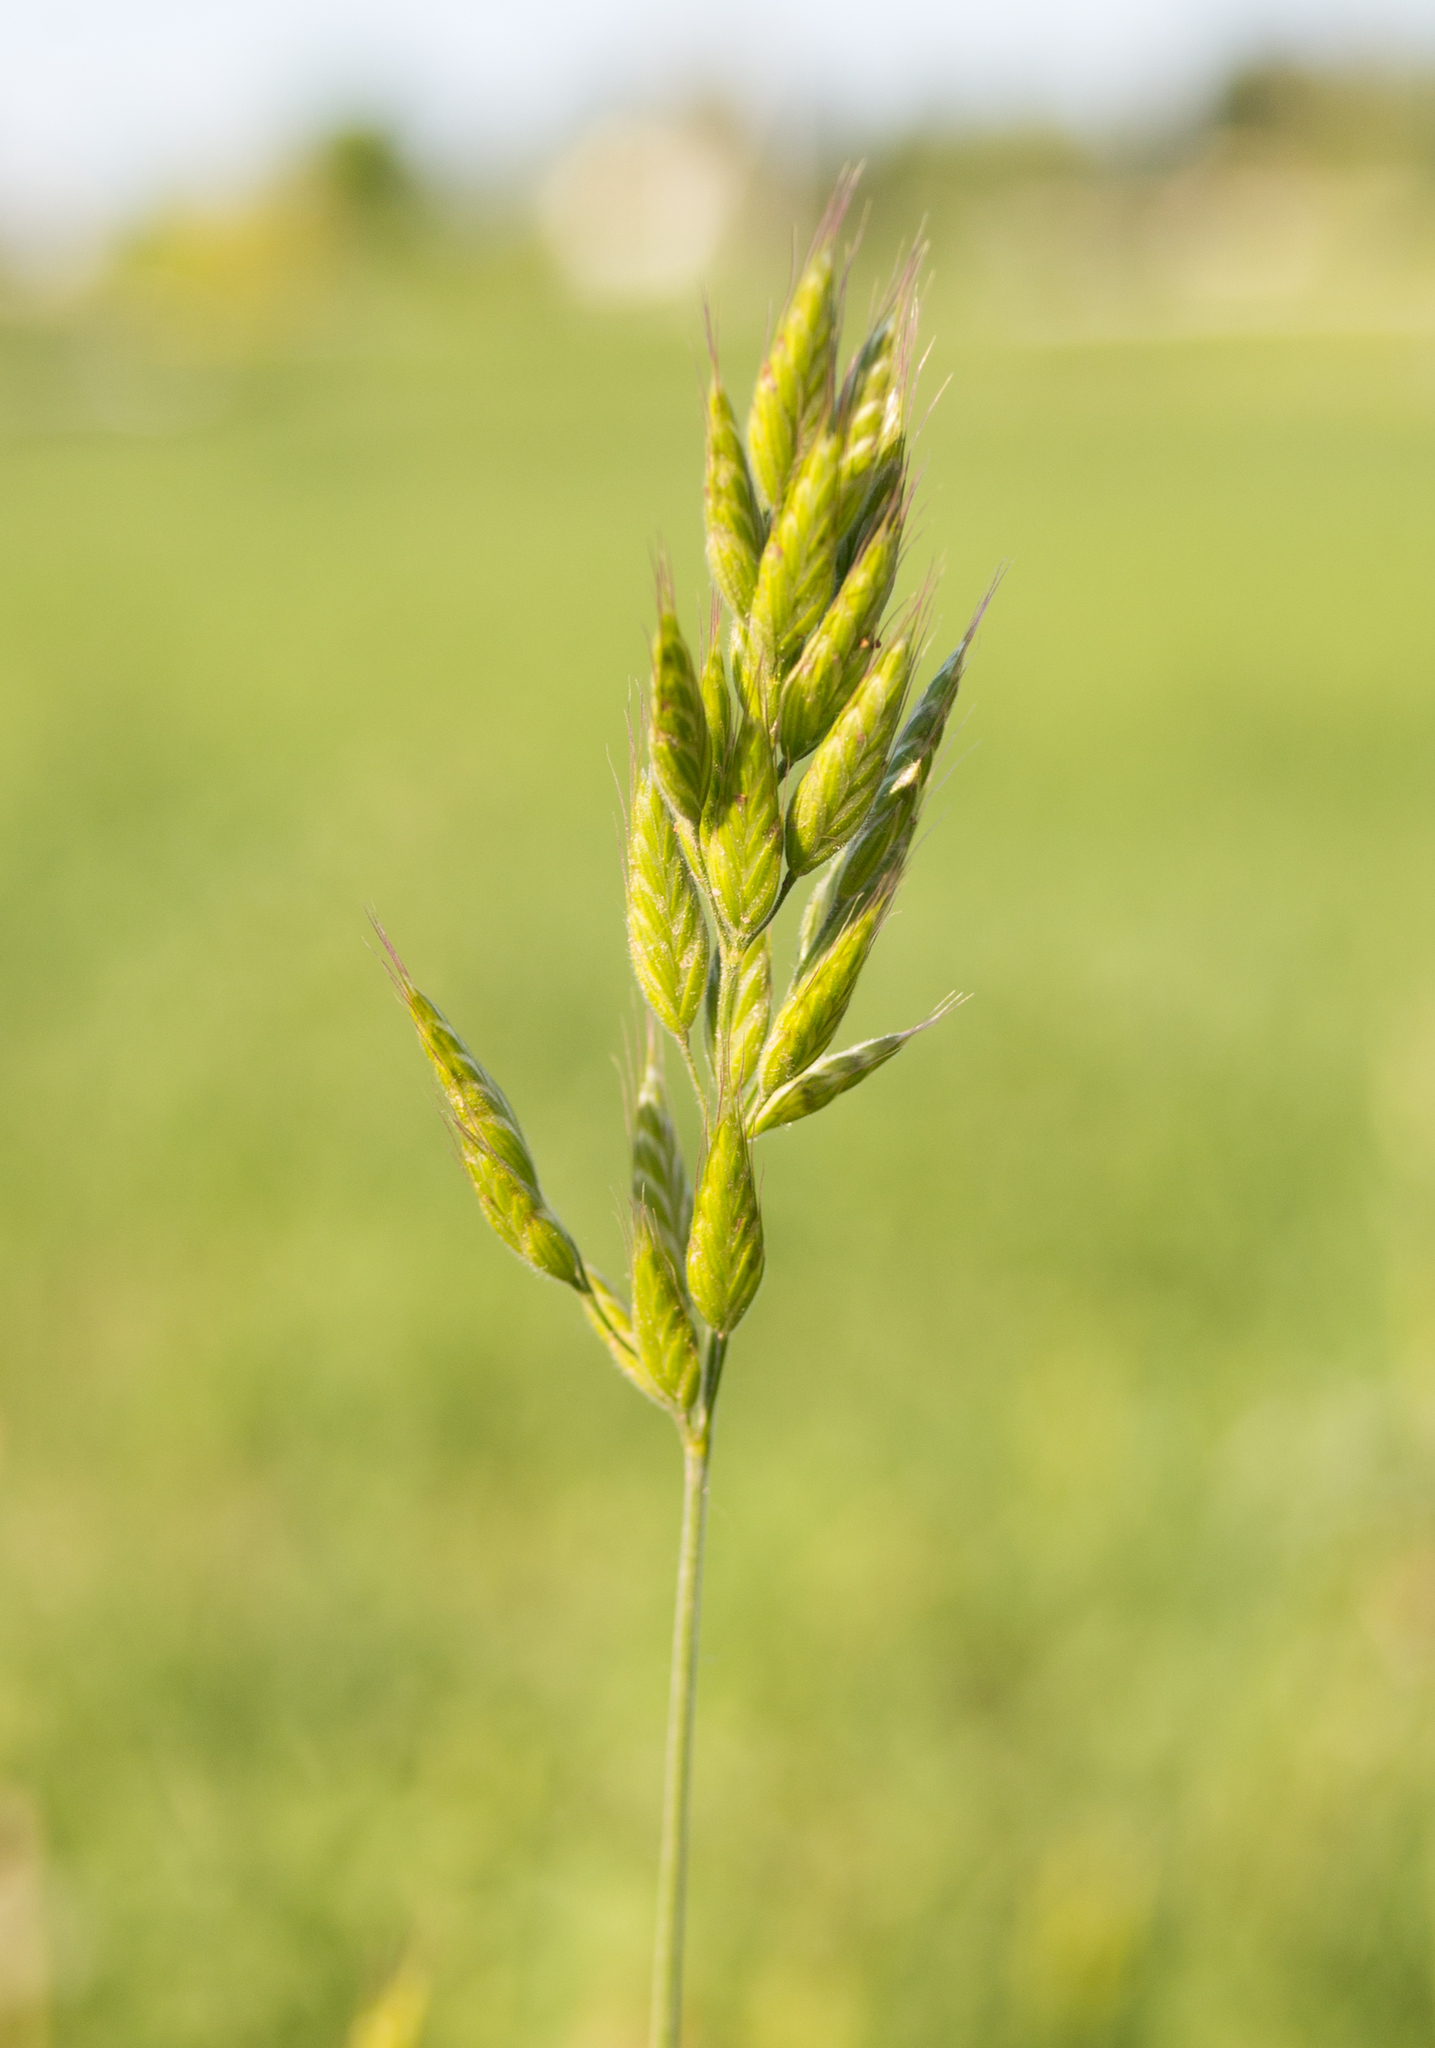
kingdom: Plantae
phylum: Tracheophyta
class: Liliopsida
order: Poales
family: Poaceae
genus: Bromus
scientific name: Bromus hordeaceus
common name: Soft brome
